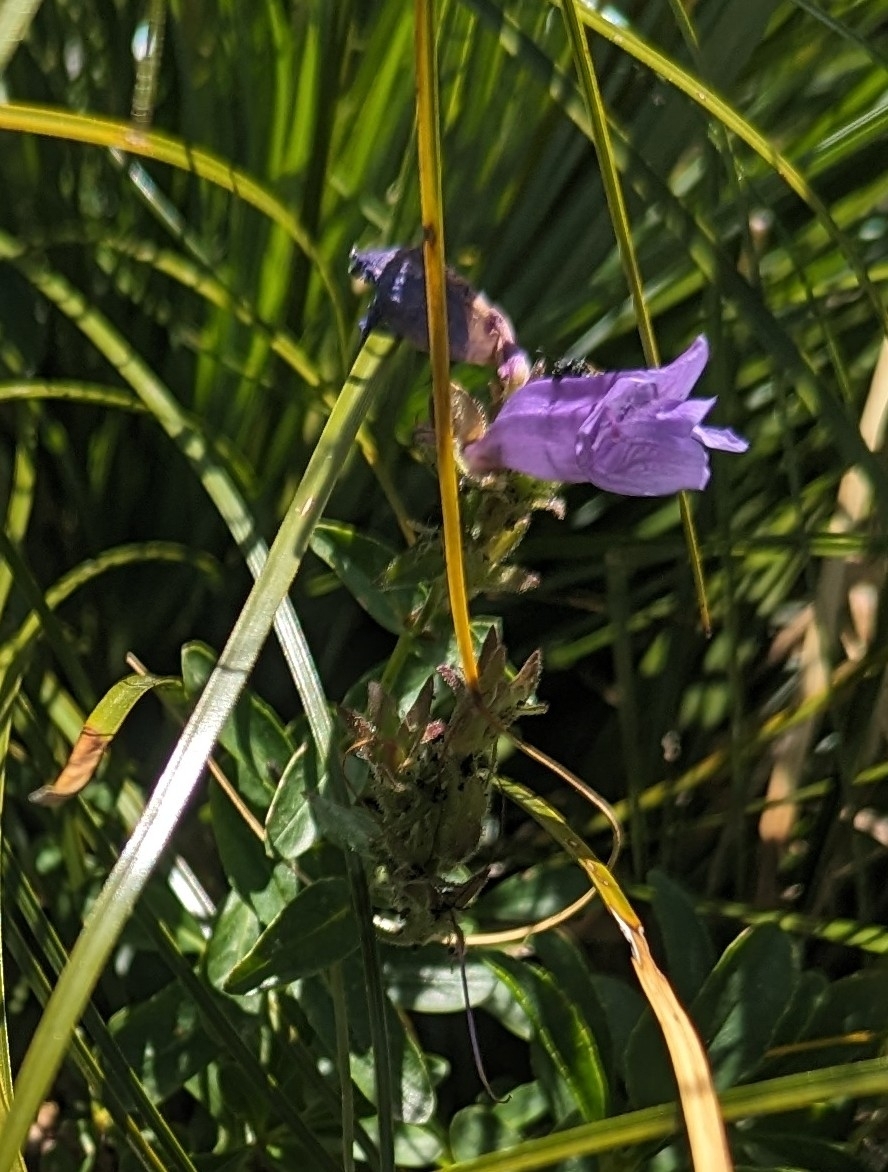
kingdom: Plantae
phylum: Tracheophyta
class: Magnoliopsida
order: Lamiales
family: Plantaginaceae
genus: Penstemon
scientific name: Penstemon ellipticus
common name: Alpine beardtongue
